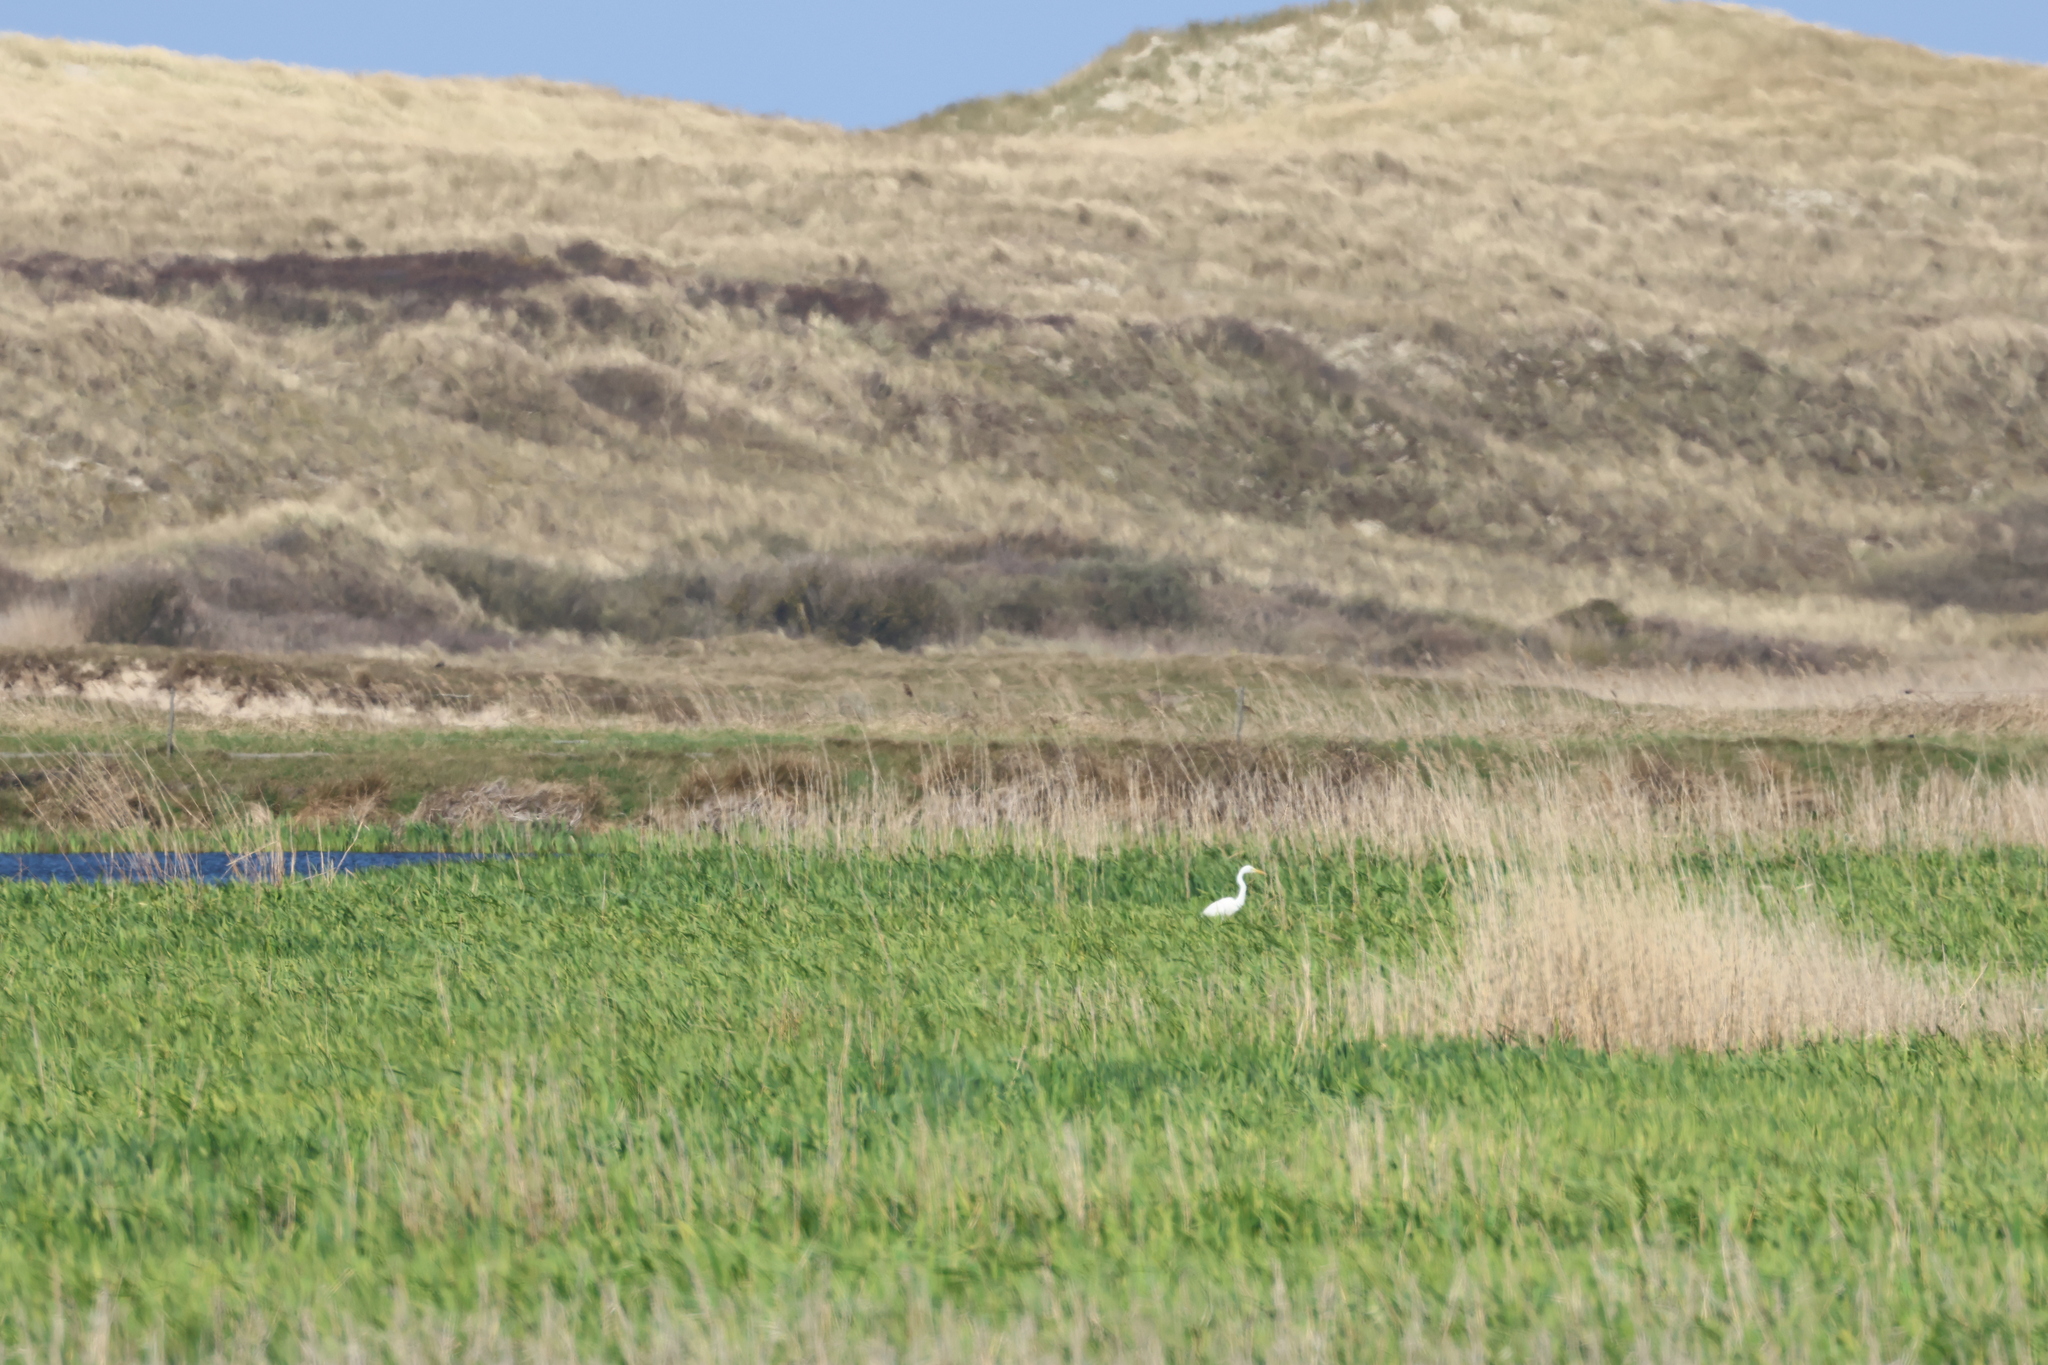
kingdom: Animalia
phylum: Chordata
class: Aves
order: Pelecaniformes
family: Ardeidae
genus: Ardea
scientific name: Ardea alba
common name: Great egret
